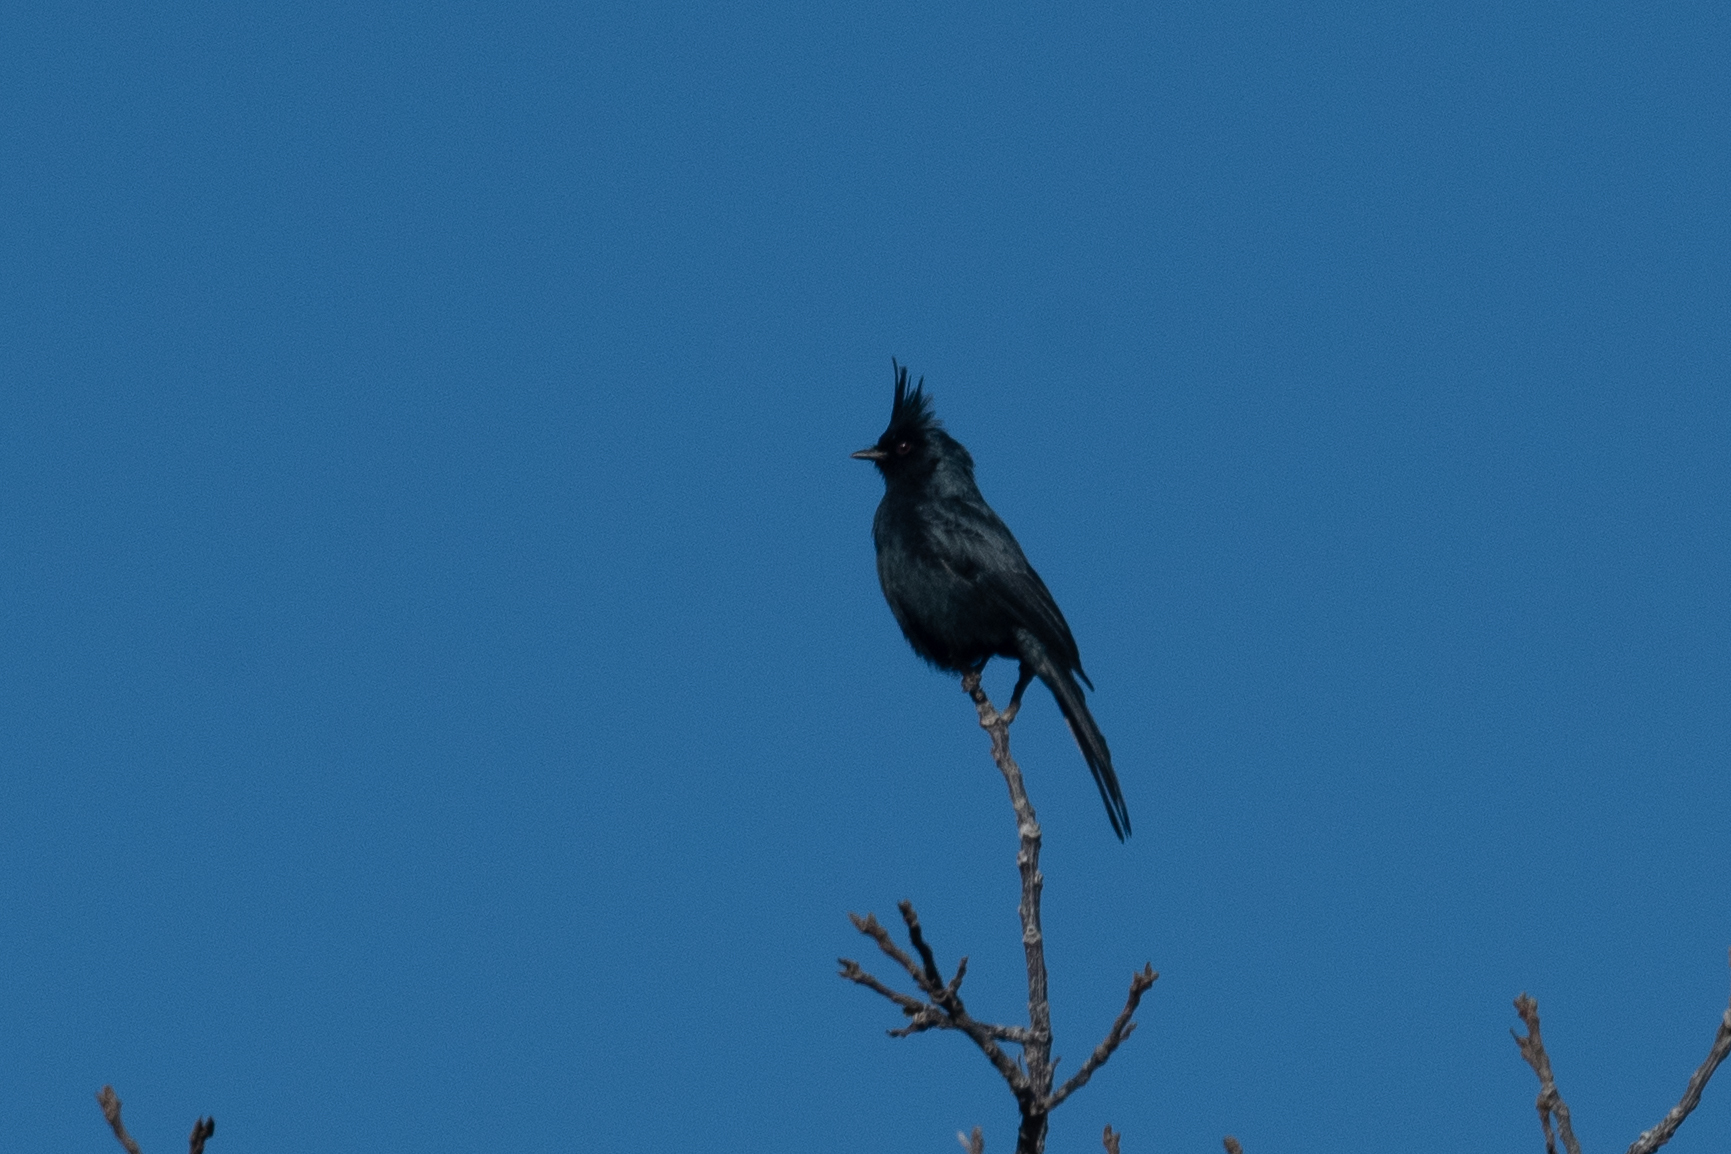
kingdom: Animalia
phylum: Chordata
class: Aves
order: Passeriformes
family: Ptilogonatidae
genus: Phainopepla
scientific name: Phainopepla nitens
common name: Phainopepla
